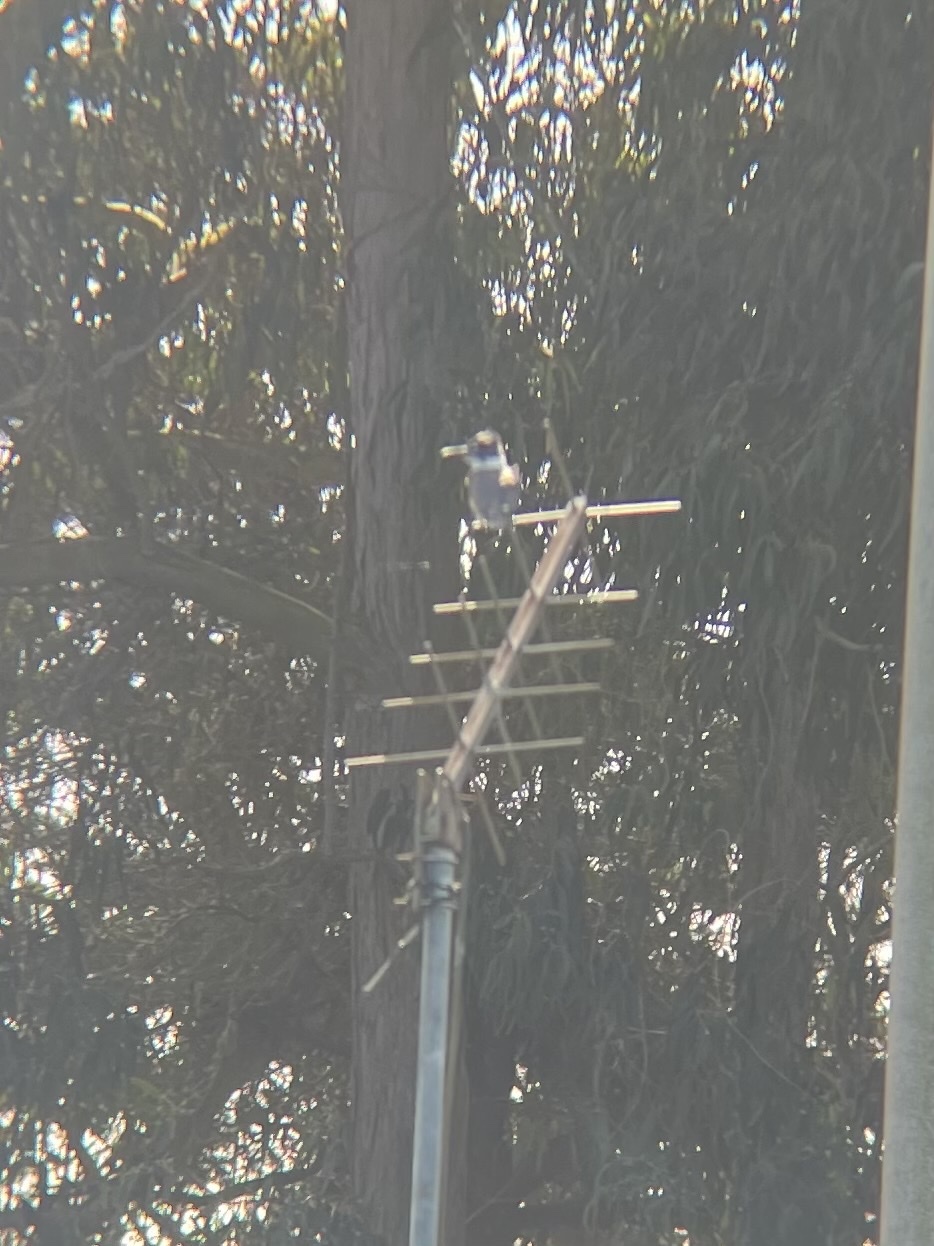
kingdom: Animalia
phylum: Chordata
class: Aves
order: Coraciiformes
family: Alcedinidae
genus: Megaceryle
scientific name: Megaceryle alcyon
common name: Belted kingfisher
